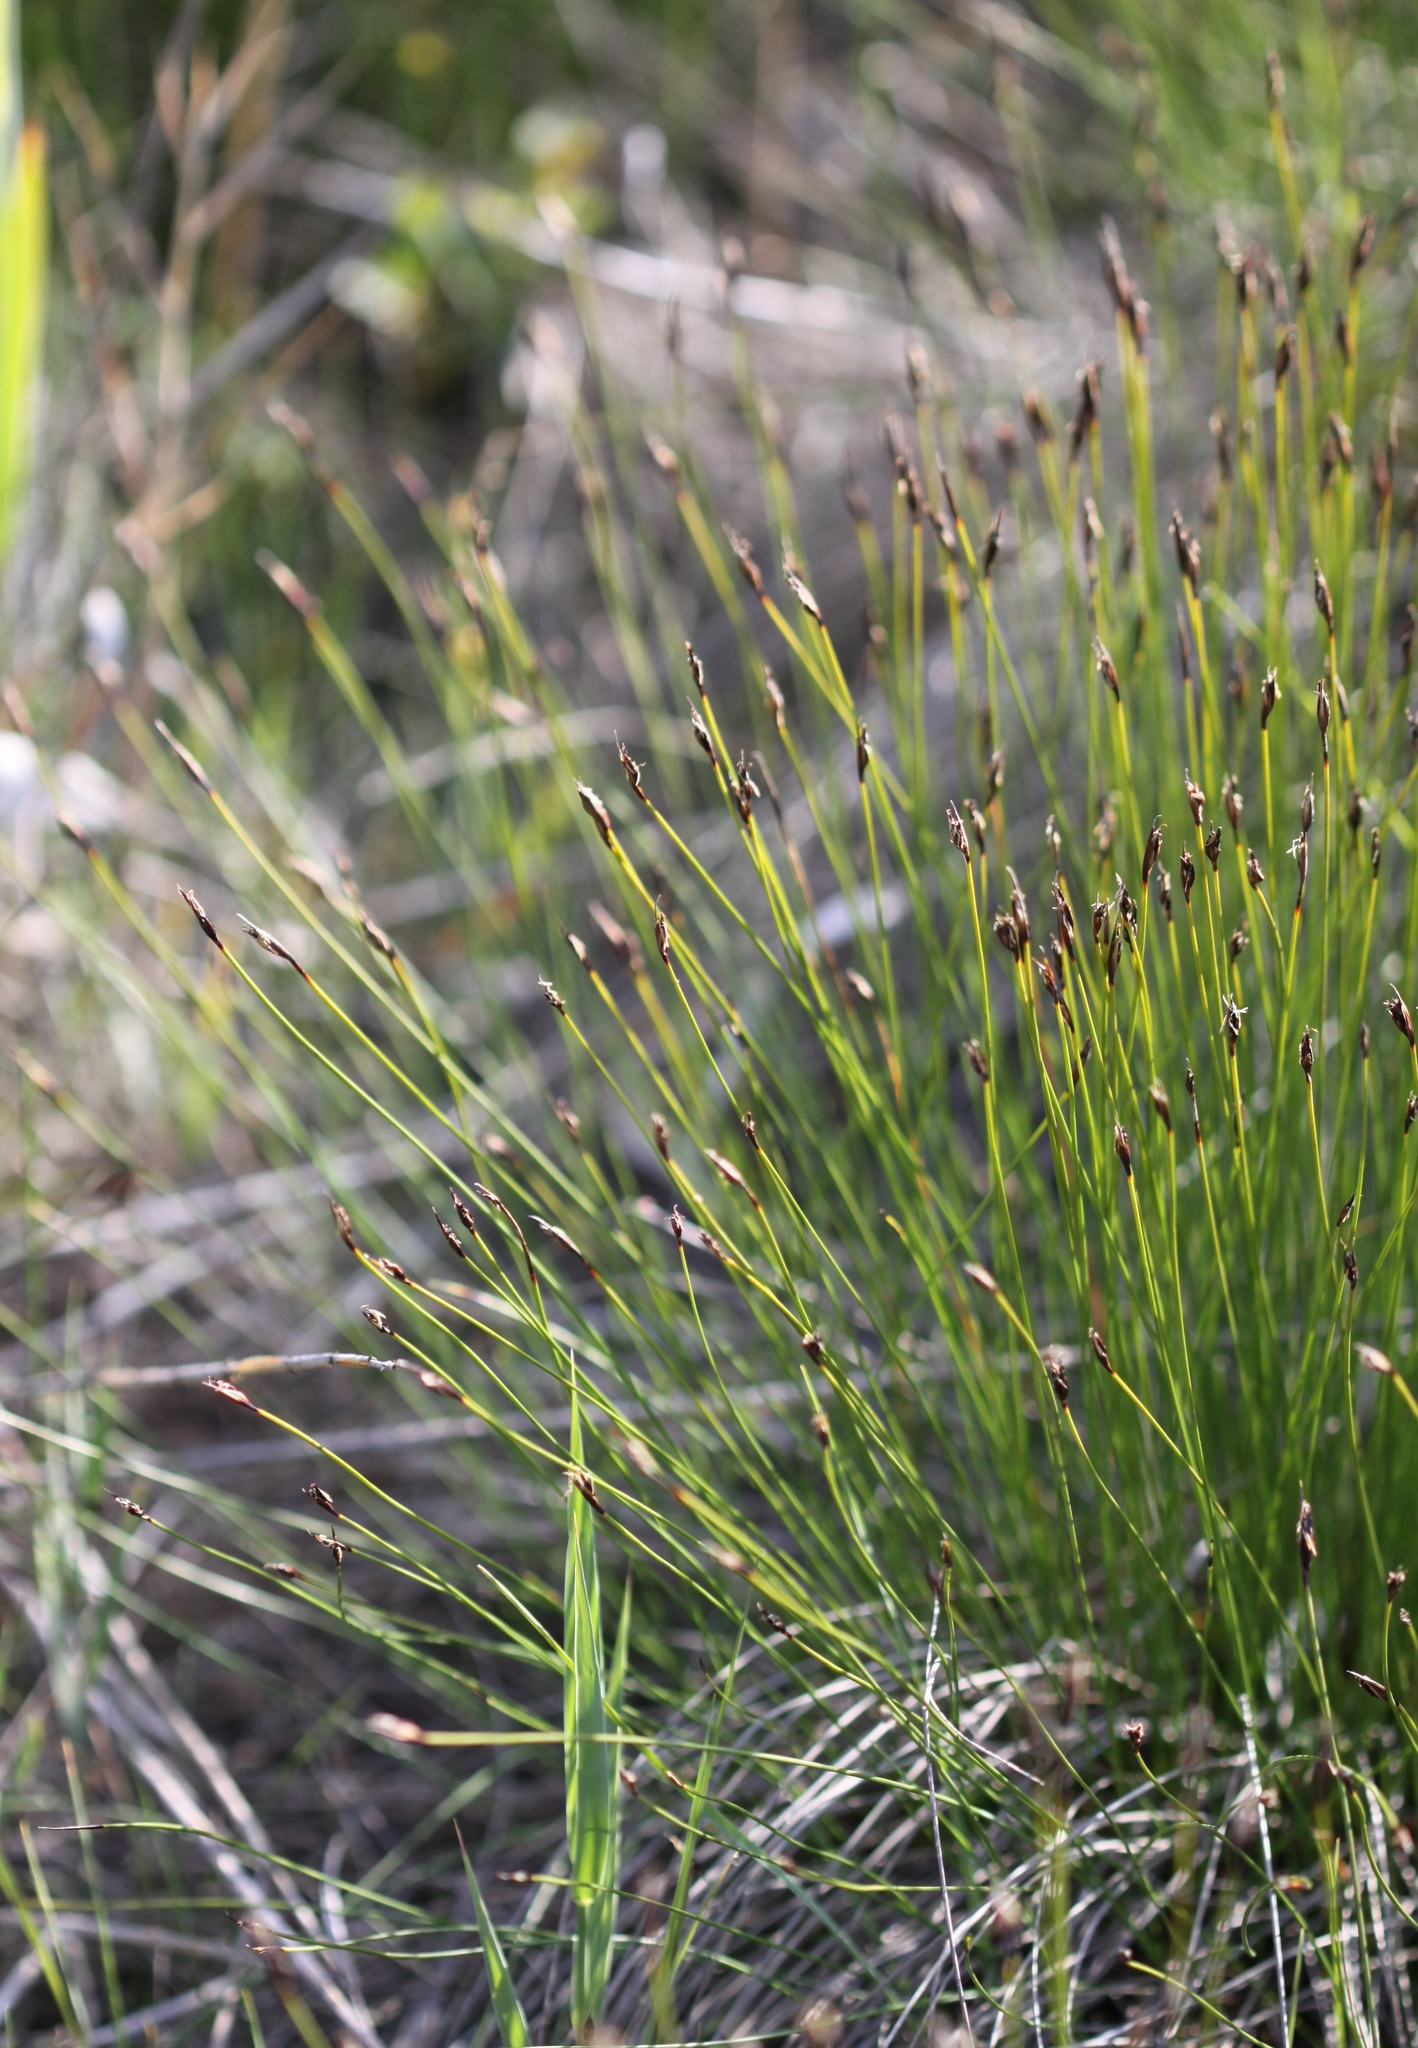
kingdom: Plantae
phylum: Tracheophyta
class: Liliopsida
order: Poales
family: Cyperaceae
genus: Schoenus
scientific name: Schoenus ferrugineus
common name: Brown bog-rush
